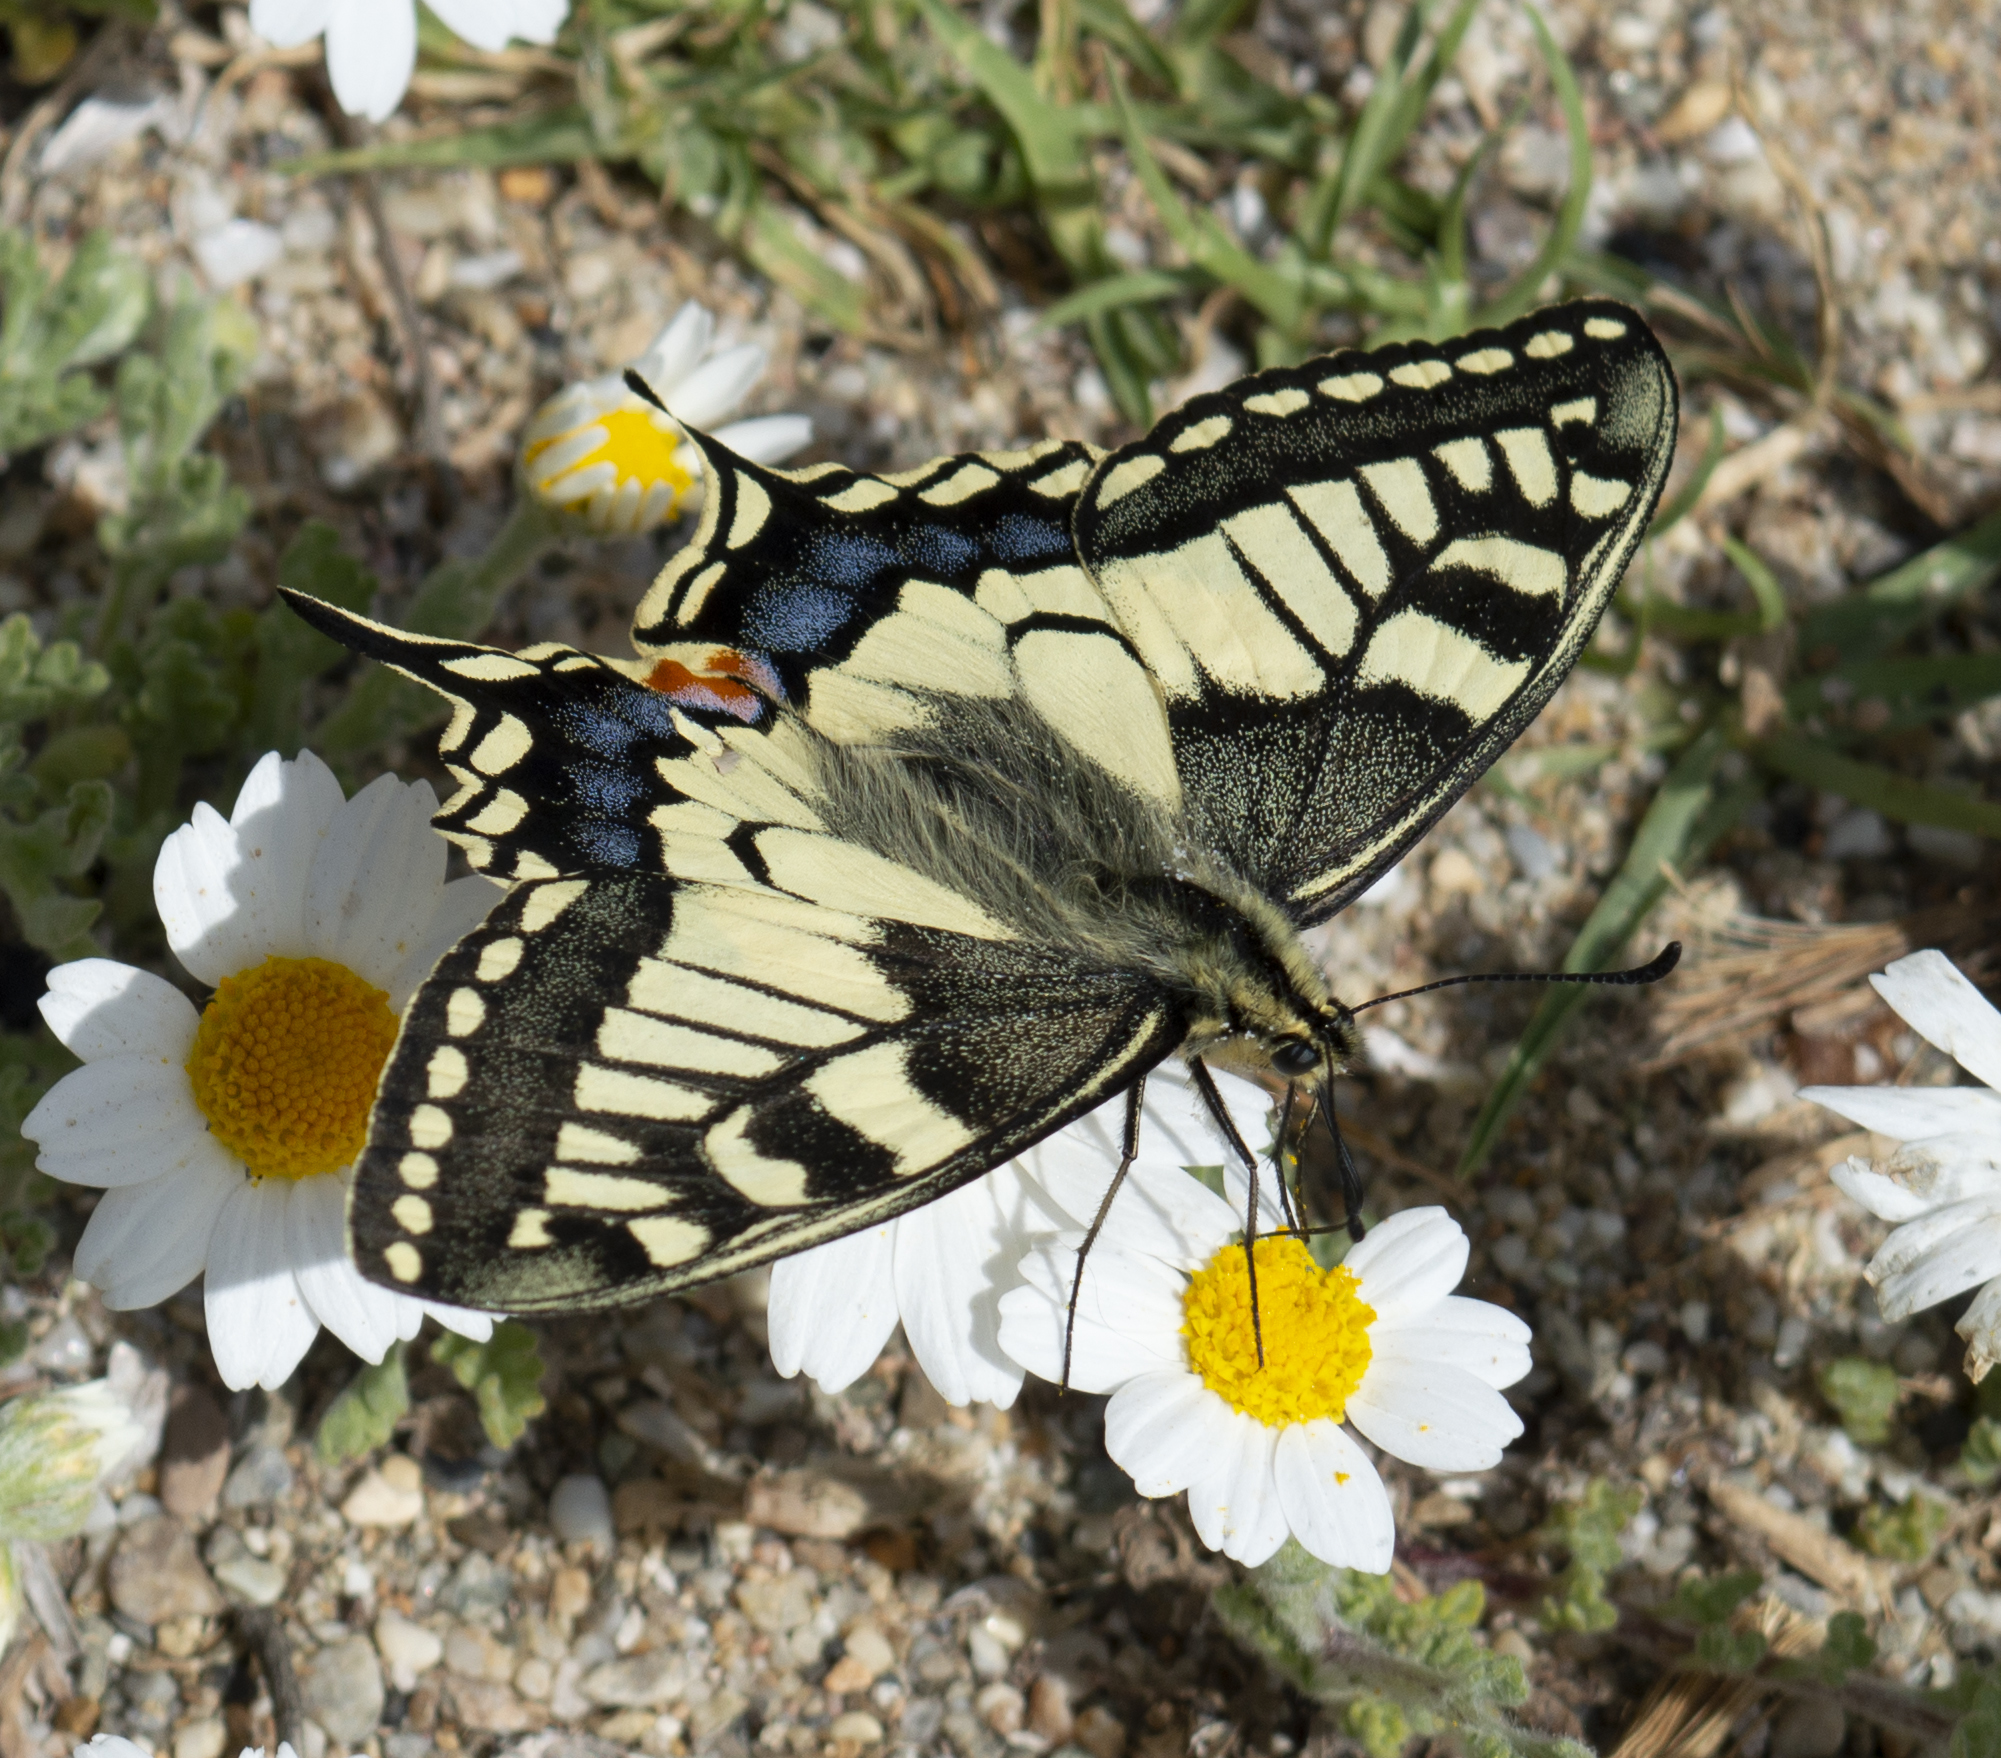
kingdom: Animalia
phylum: Arthropoda
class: Insecta
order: Lepidoptera
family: Papilionidae
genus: Papilio
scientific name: Papilio machaon
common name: Swallowtail
